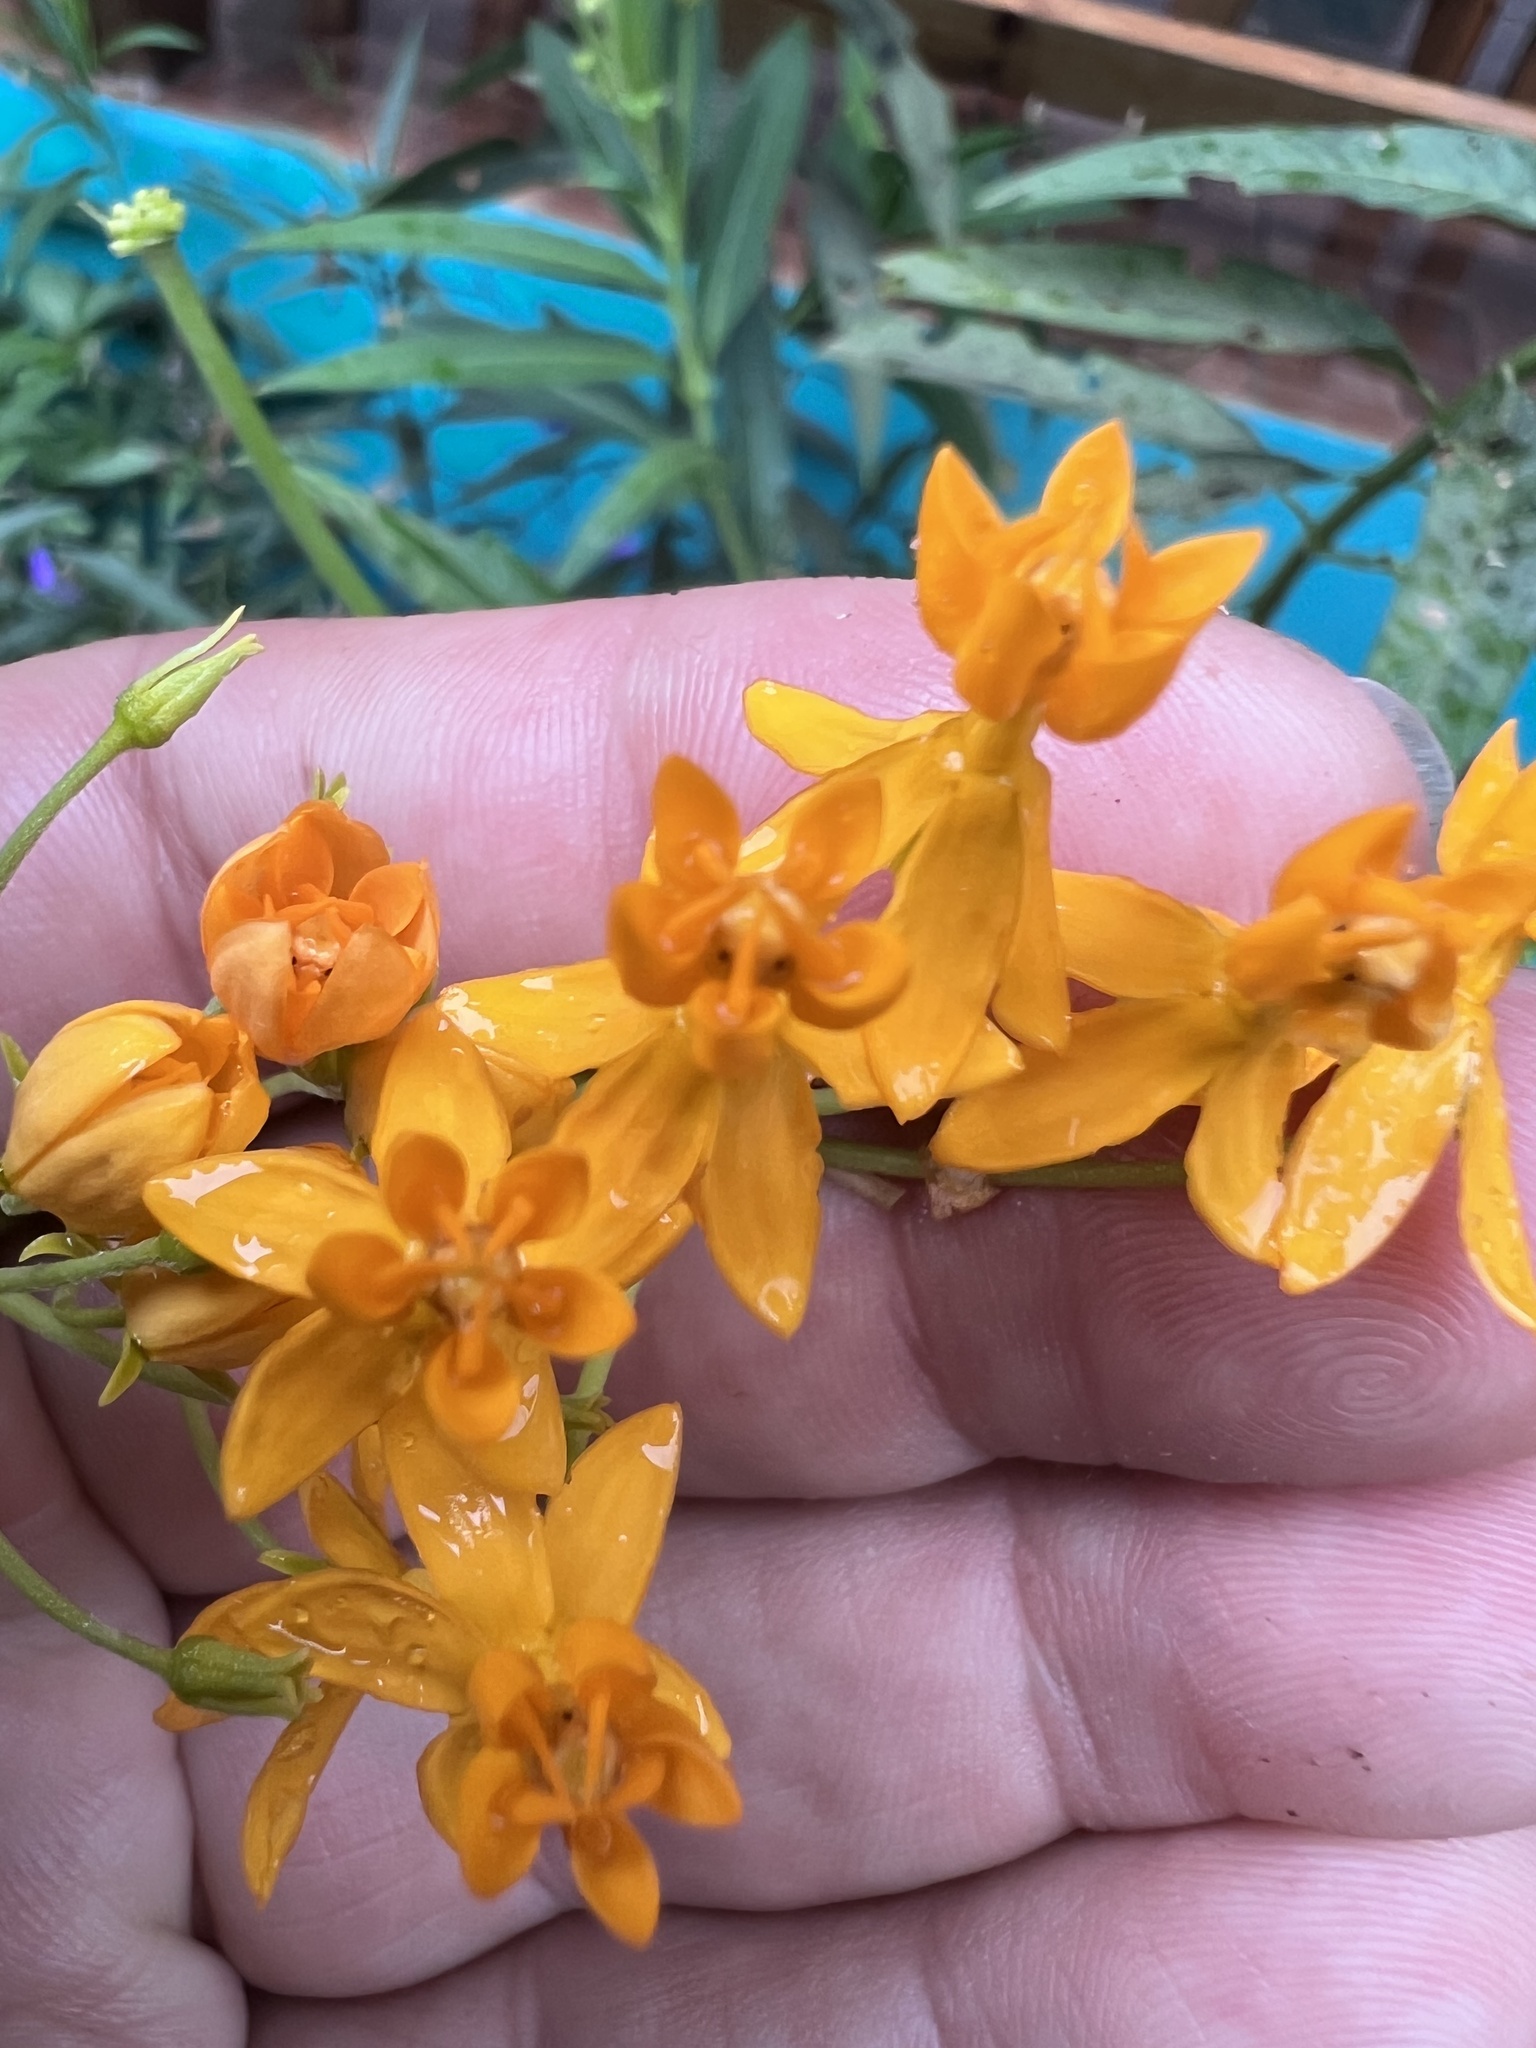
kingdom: Plantae
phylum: Tracheophyta
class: Magnoliopsida
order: Gentianales
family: Apocynaceae
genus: Asclepias
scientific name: Asclepias curassavica
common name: Bloodflower
